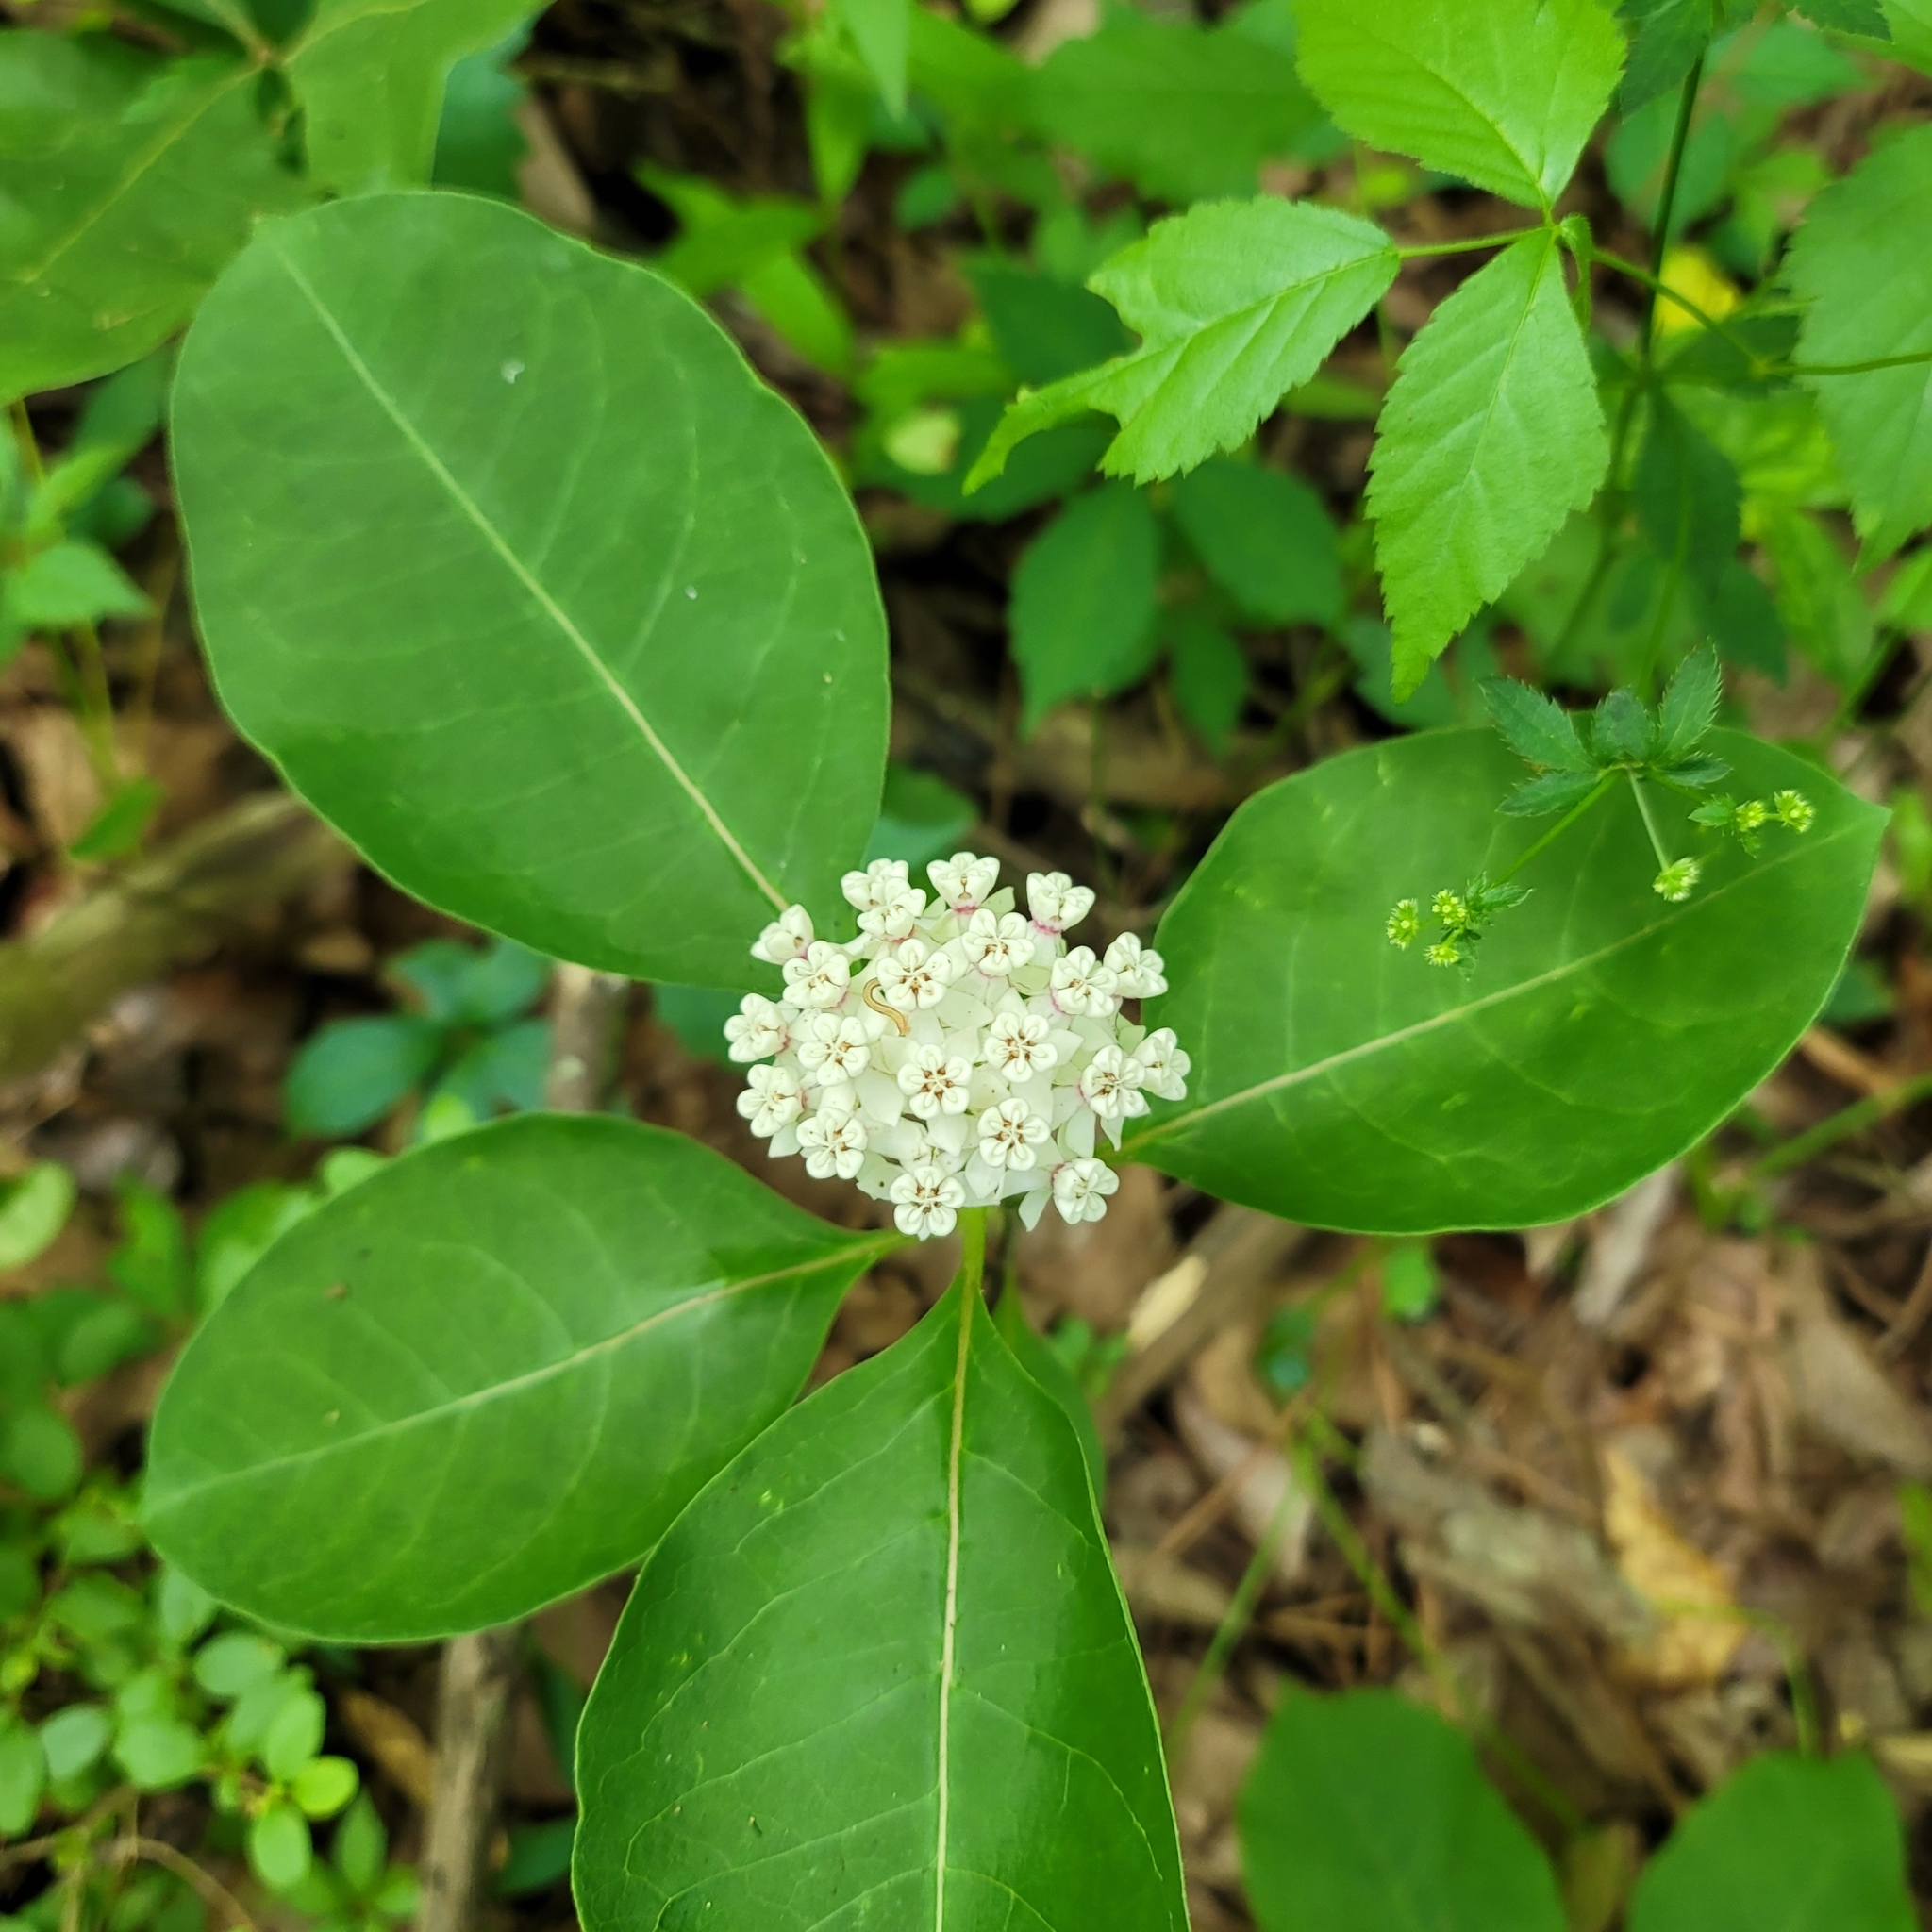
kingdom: Plantae
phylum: Tracheophyta
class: Magnoliopsida
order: Gentianales
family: Apocynaceae
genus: Asclepias
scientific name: Asclepias variegata
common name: Variegated milkweed
